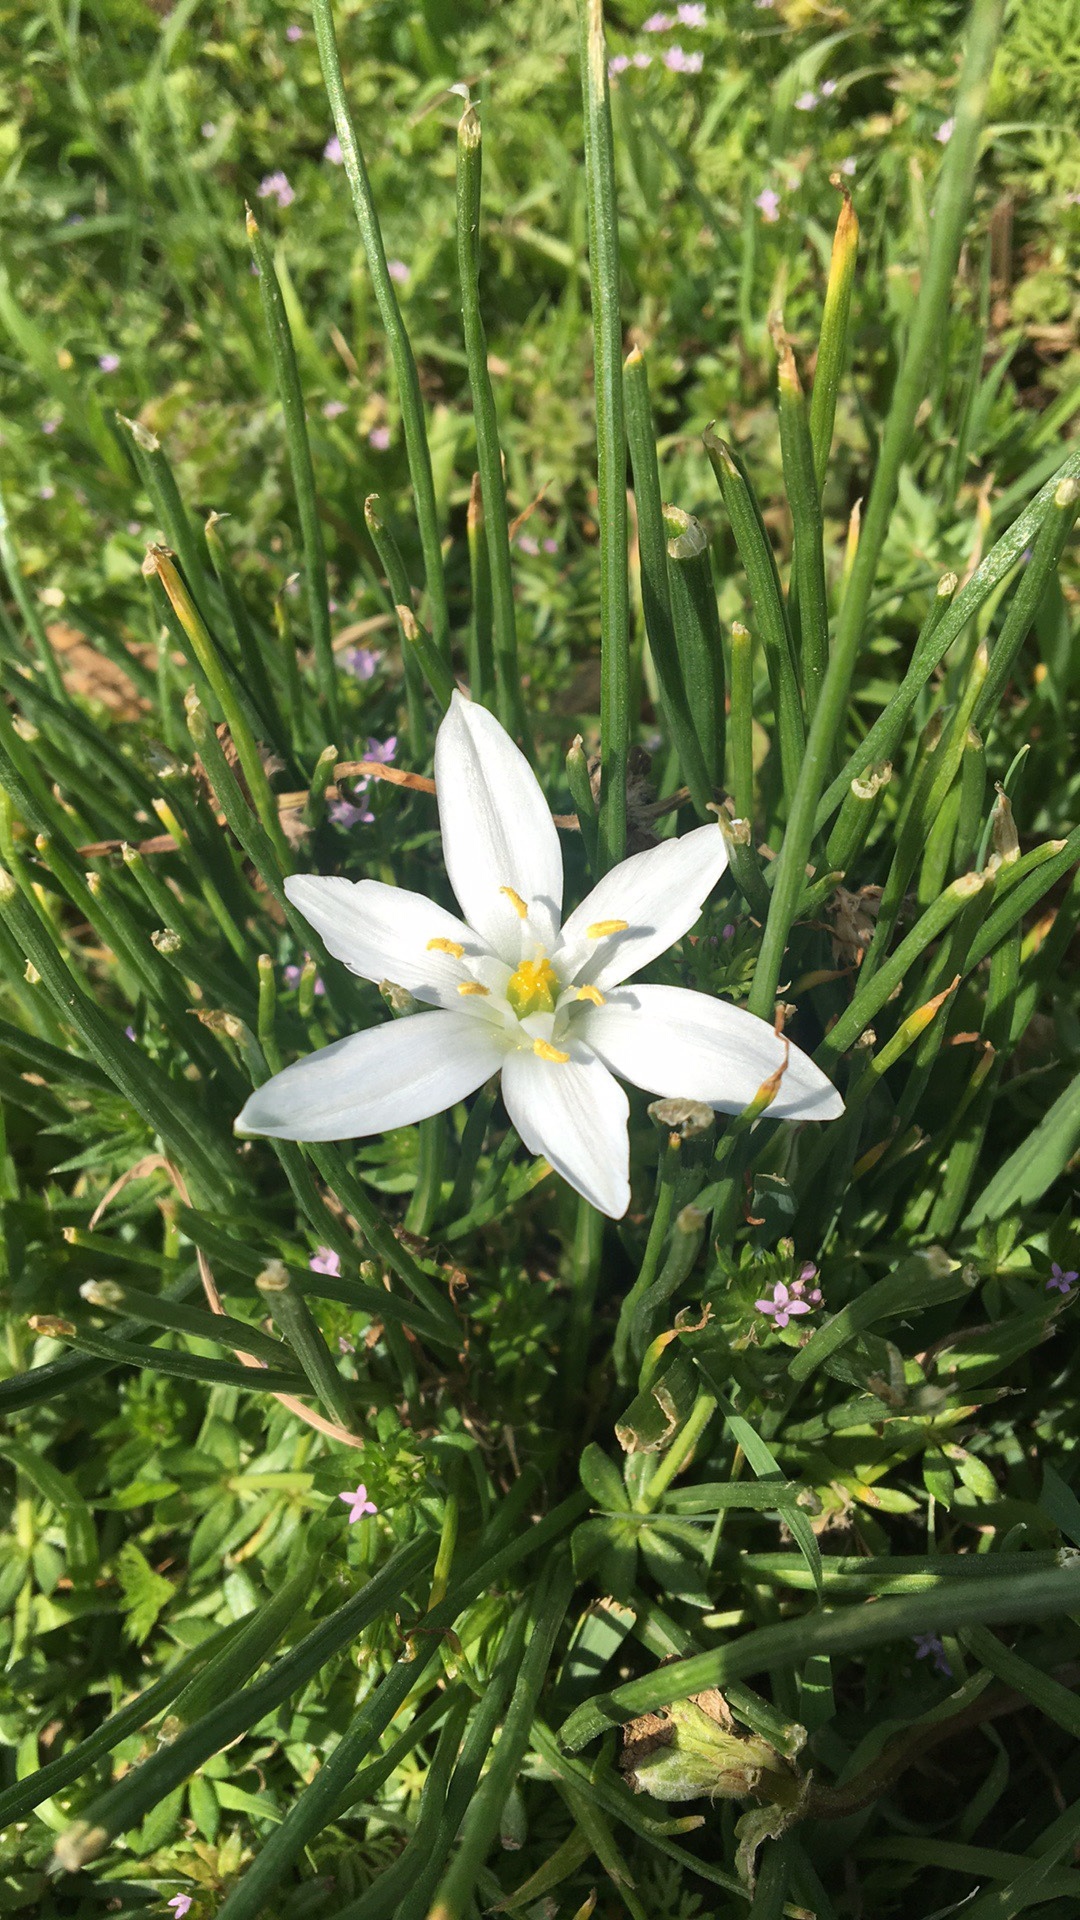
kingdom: Plantae
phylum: Tracheophyta
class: Liliopsida
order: Asparagales
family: Asparagaceae
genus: Ornithogalum
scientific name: Ornithogalum umbellatum
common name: Garden star-of-bethlehem
